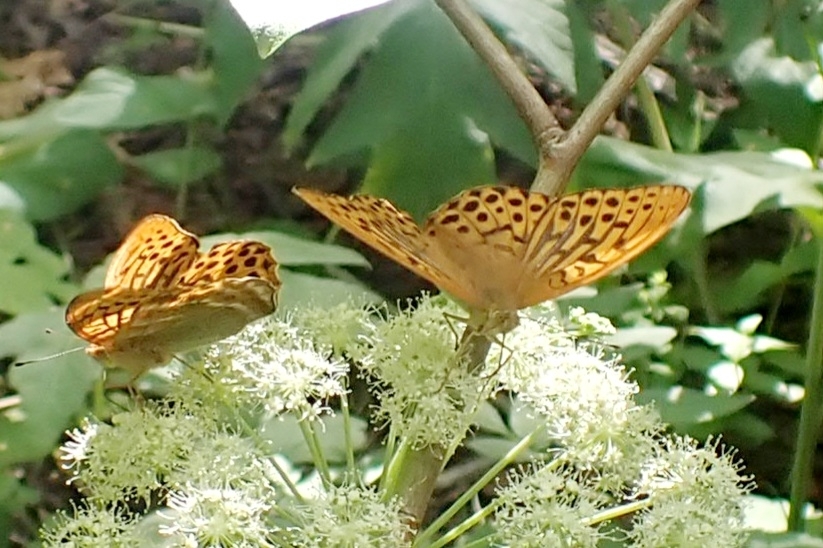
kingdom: Animalia
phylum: Arthropoda
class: Insecta
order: Lepidoptera
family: Nymphalidae
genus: Argynnis
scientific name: Argynnis paphia
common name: Silver-washed fritillary
